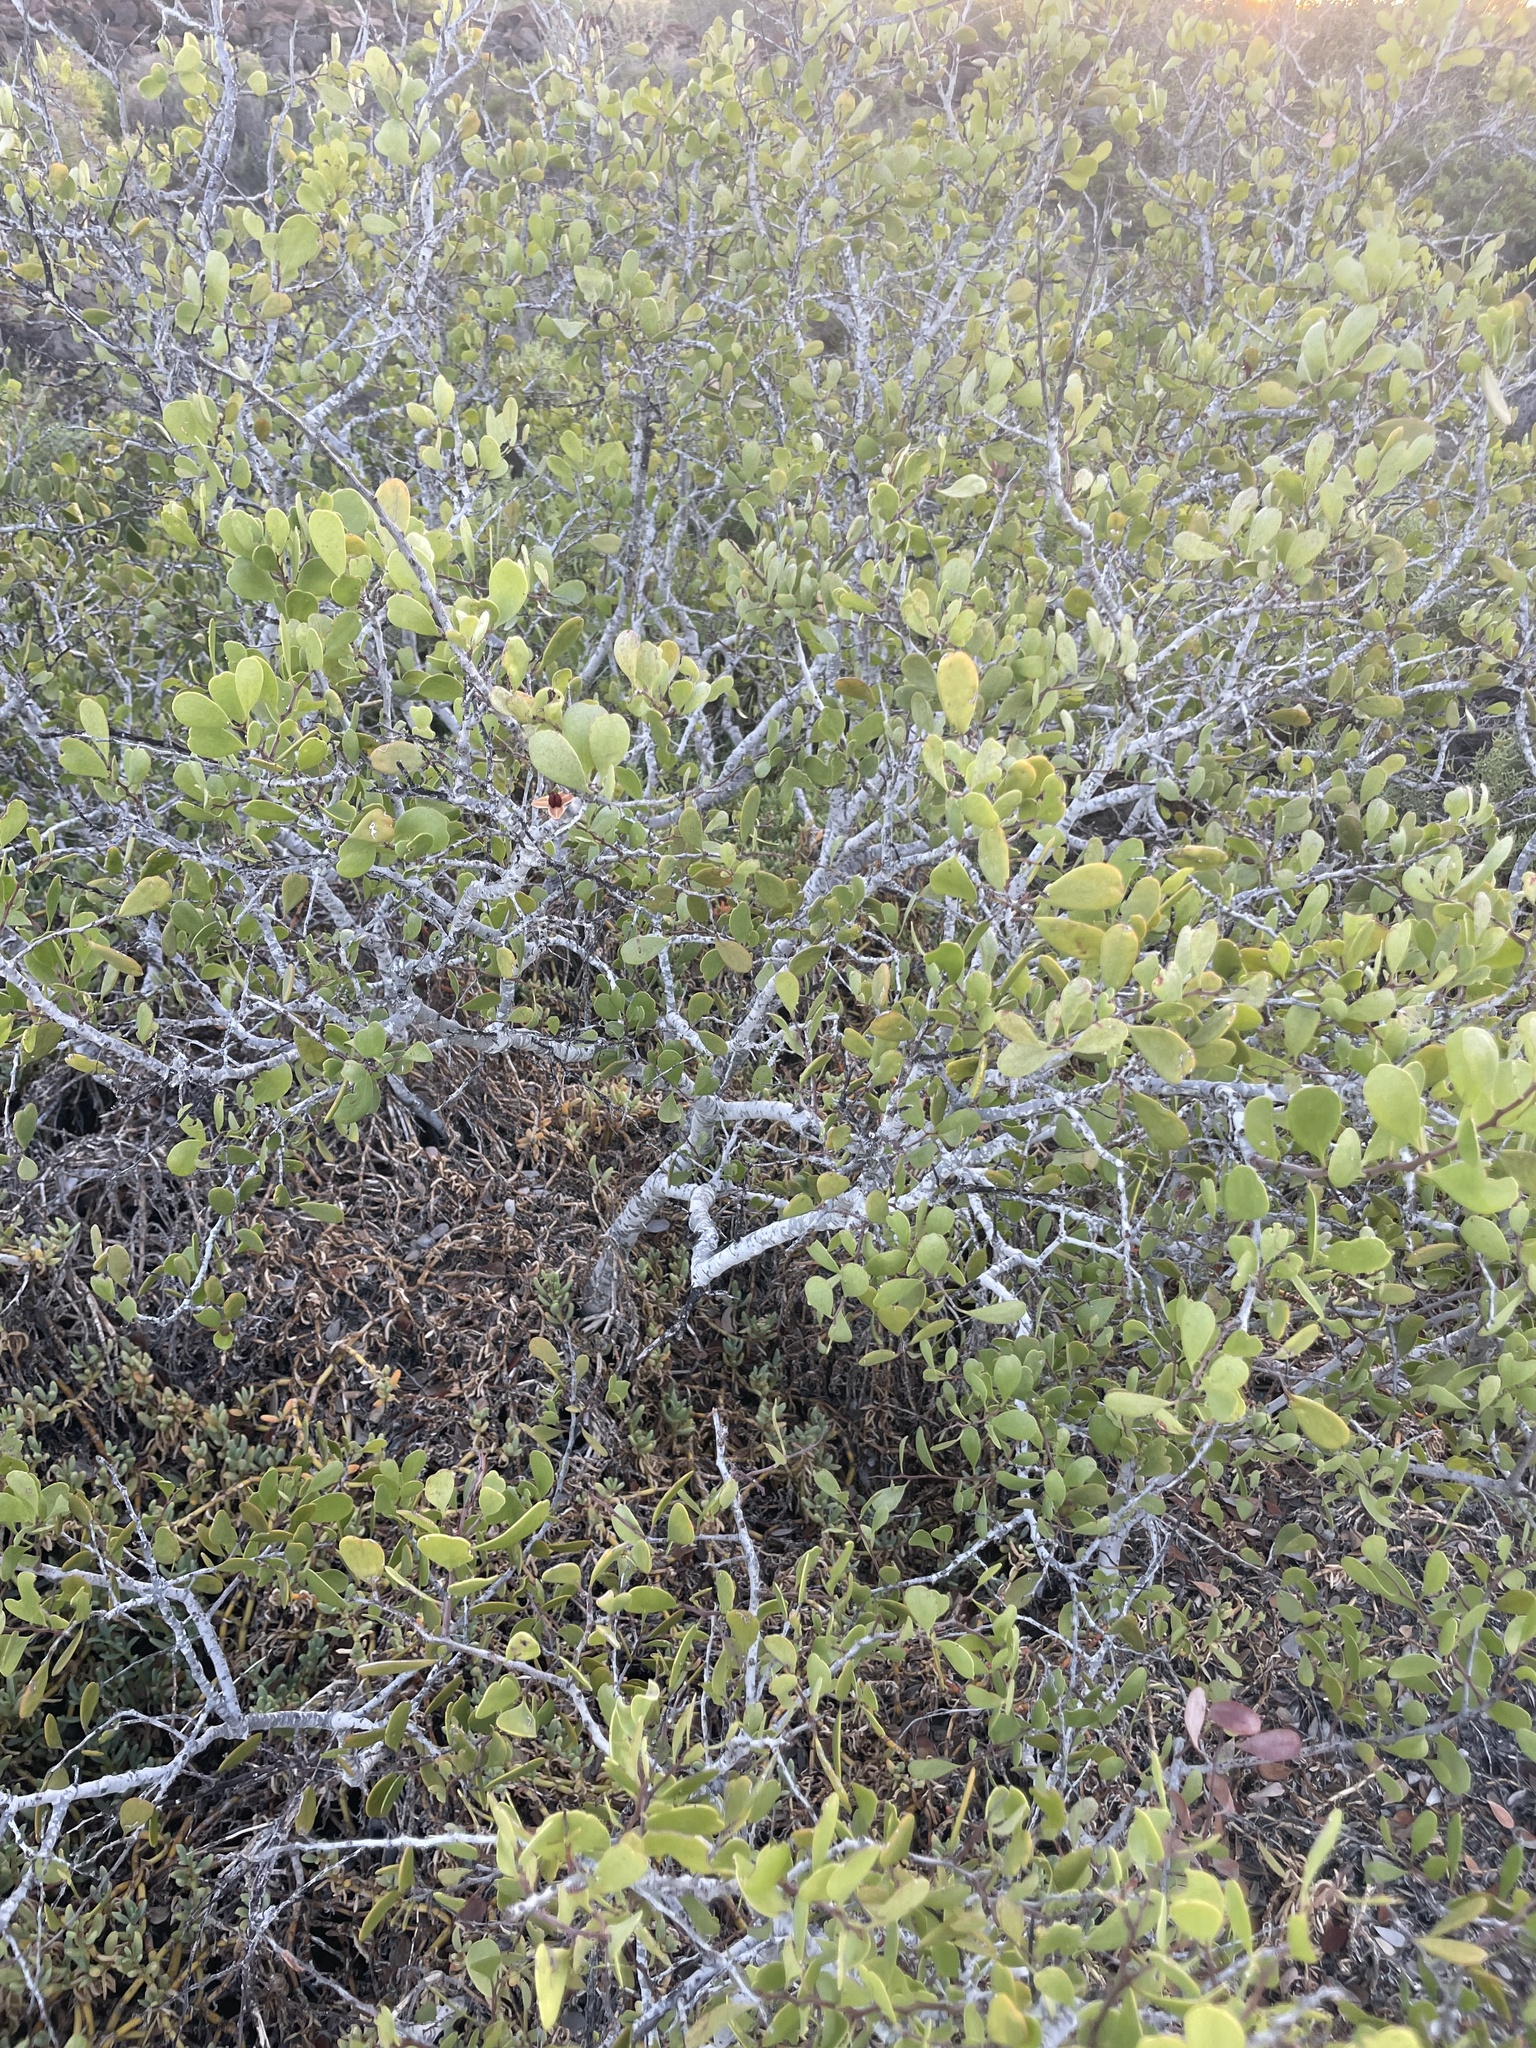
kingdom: Plantae
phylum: Tracheophyta
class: Magnoliopsida
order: Celastrales
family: Celastraceae
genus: Tricerma
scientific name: Tricerma phyllanthoides
